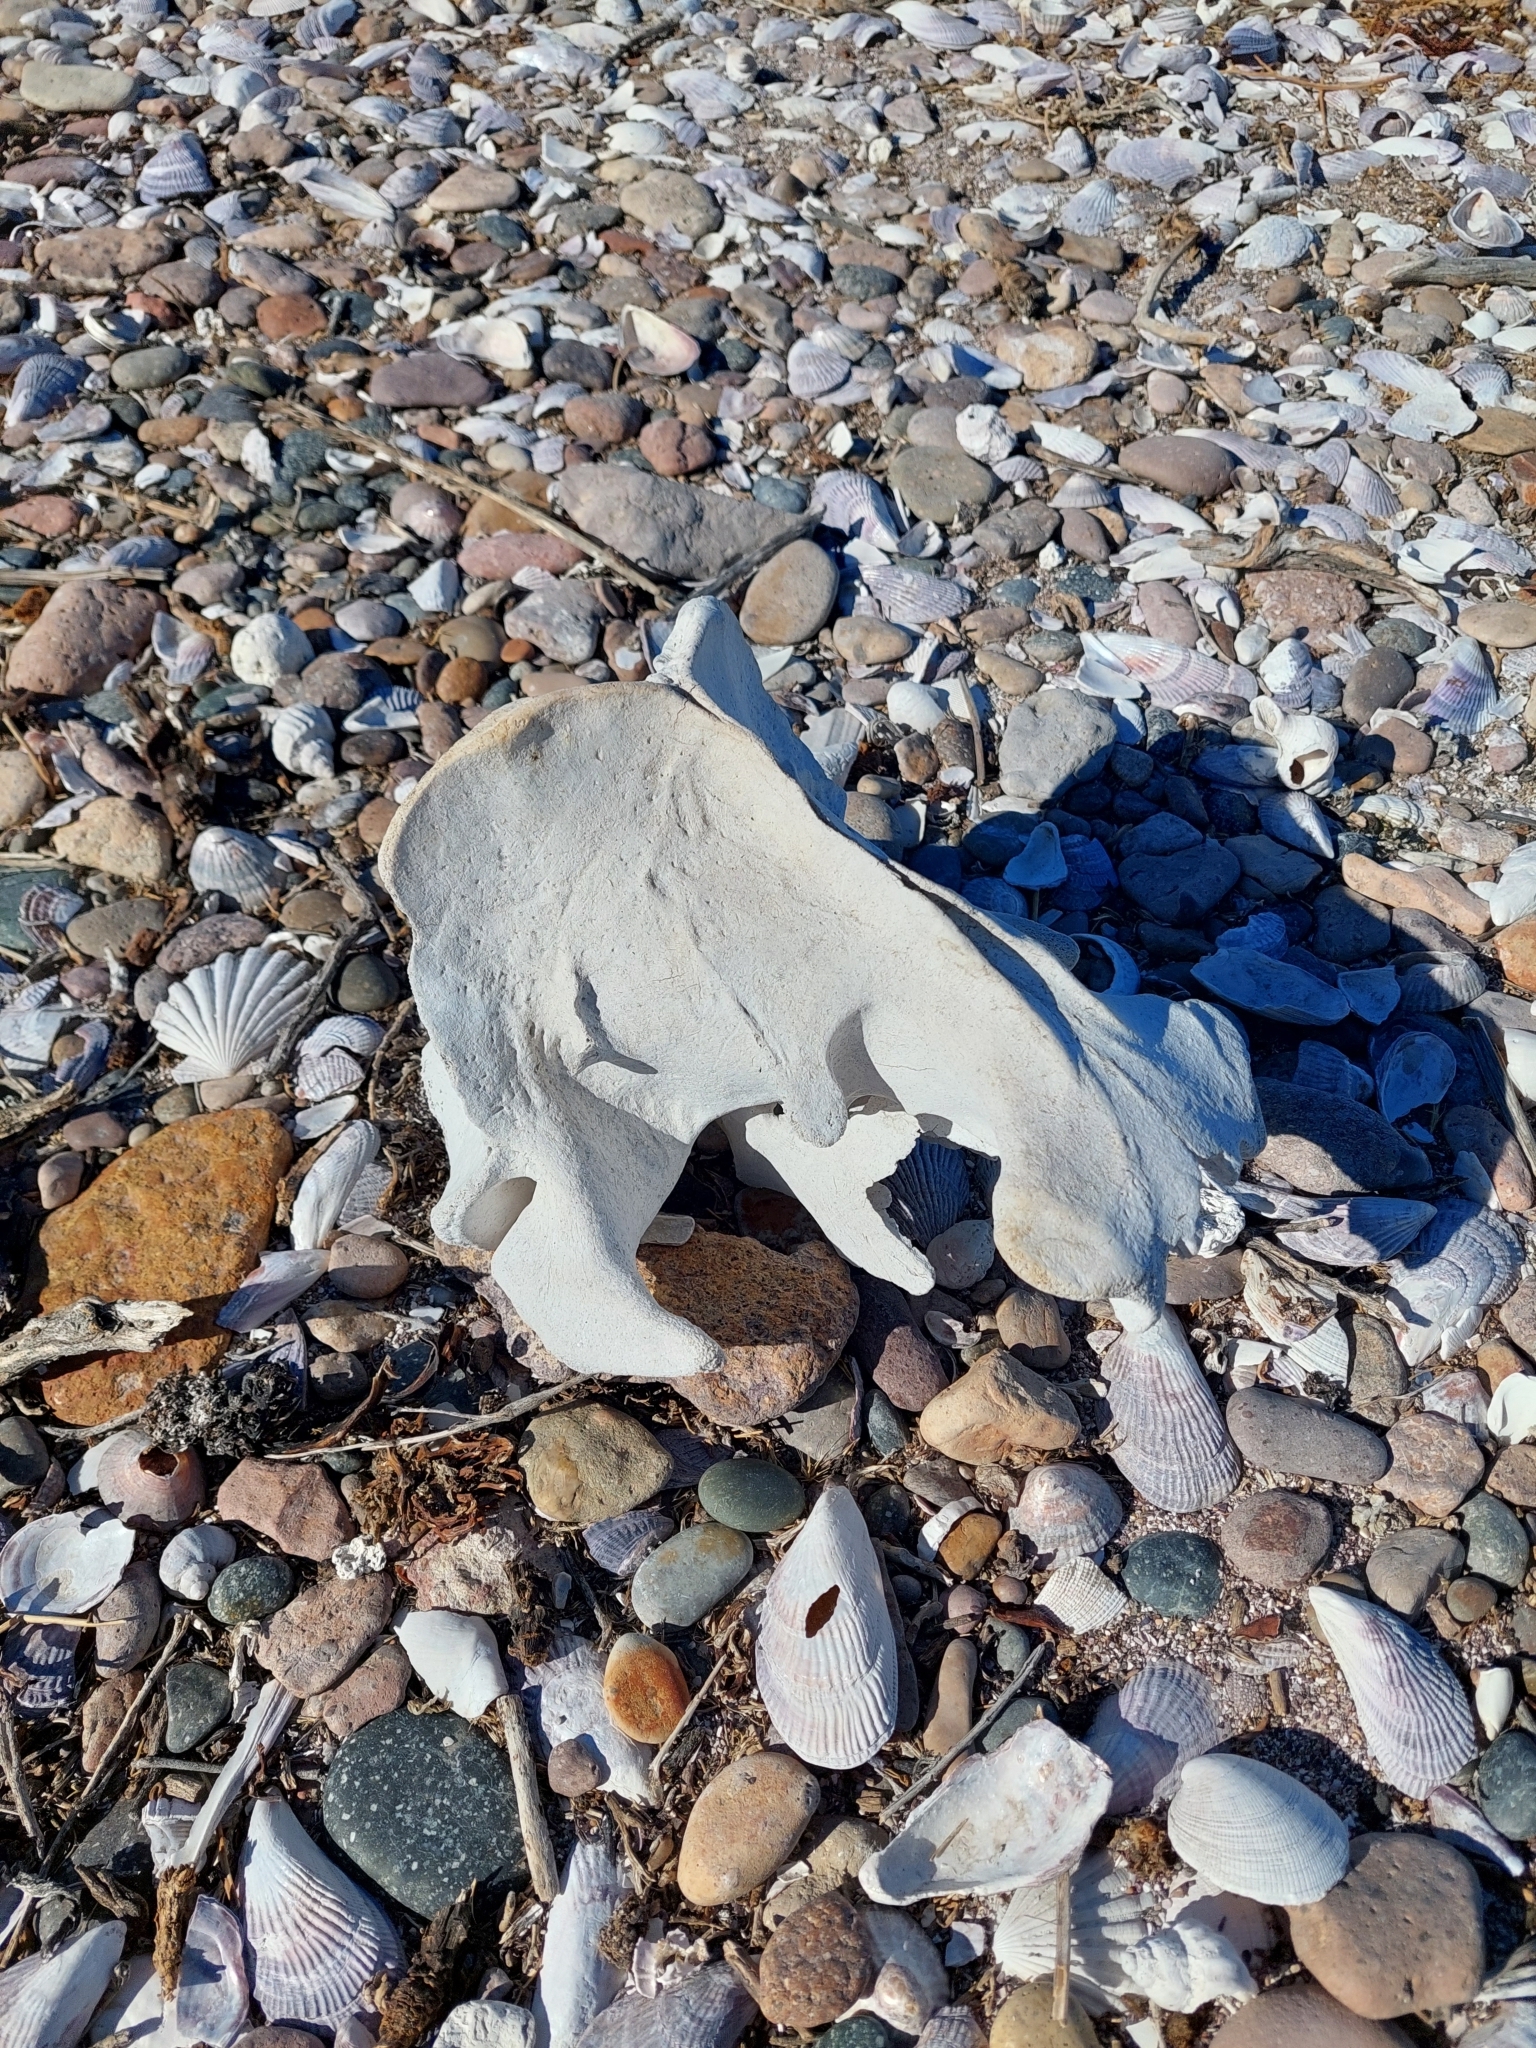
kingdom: Animalia
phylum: Chordata
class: Mammalia
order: Carnivora
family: Otariidae
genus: Otaria
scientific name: Otaria byronia
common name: South american sea lion
